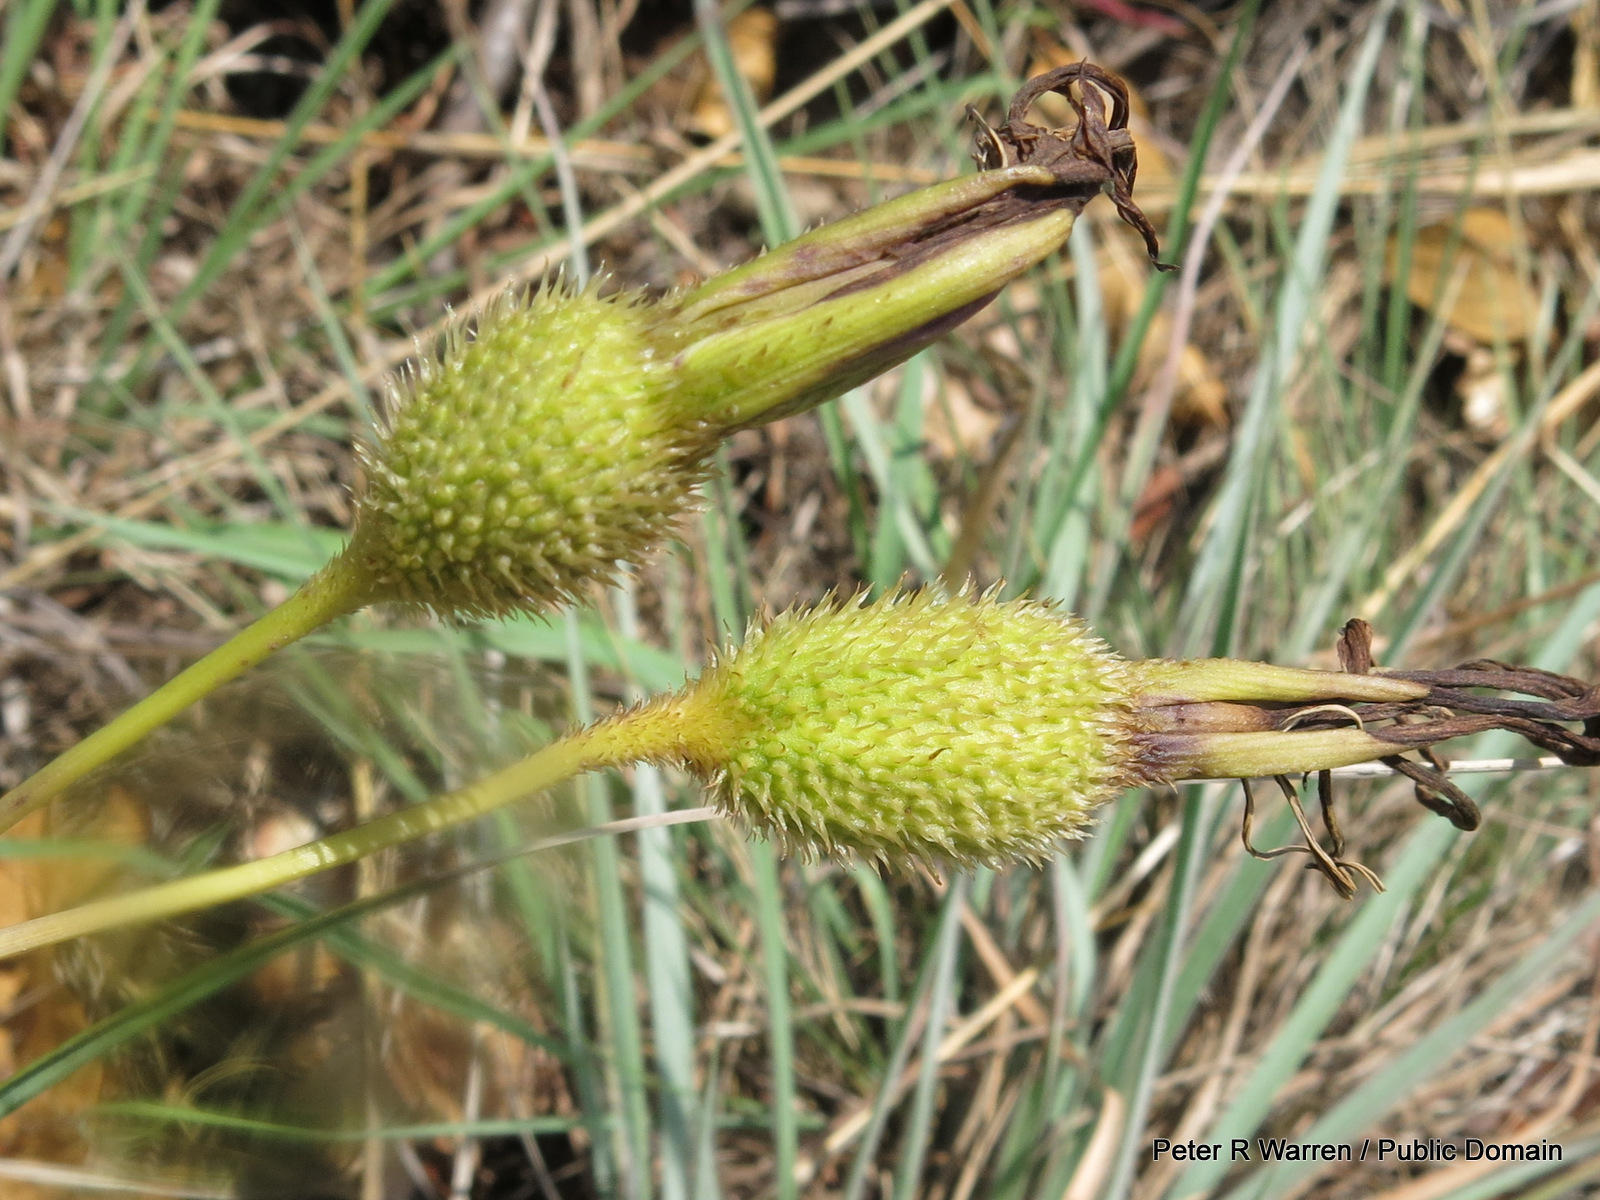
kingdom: Plantae
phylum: Tracheophyta
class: Liliopsida
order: Pandanales
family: Velloziaceae
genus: Xerophyta
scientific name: Xerophyta retinervis
